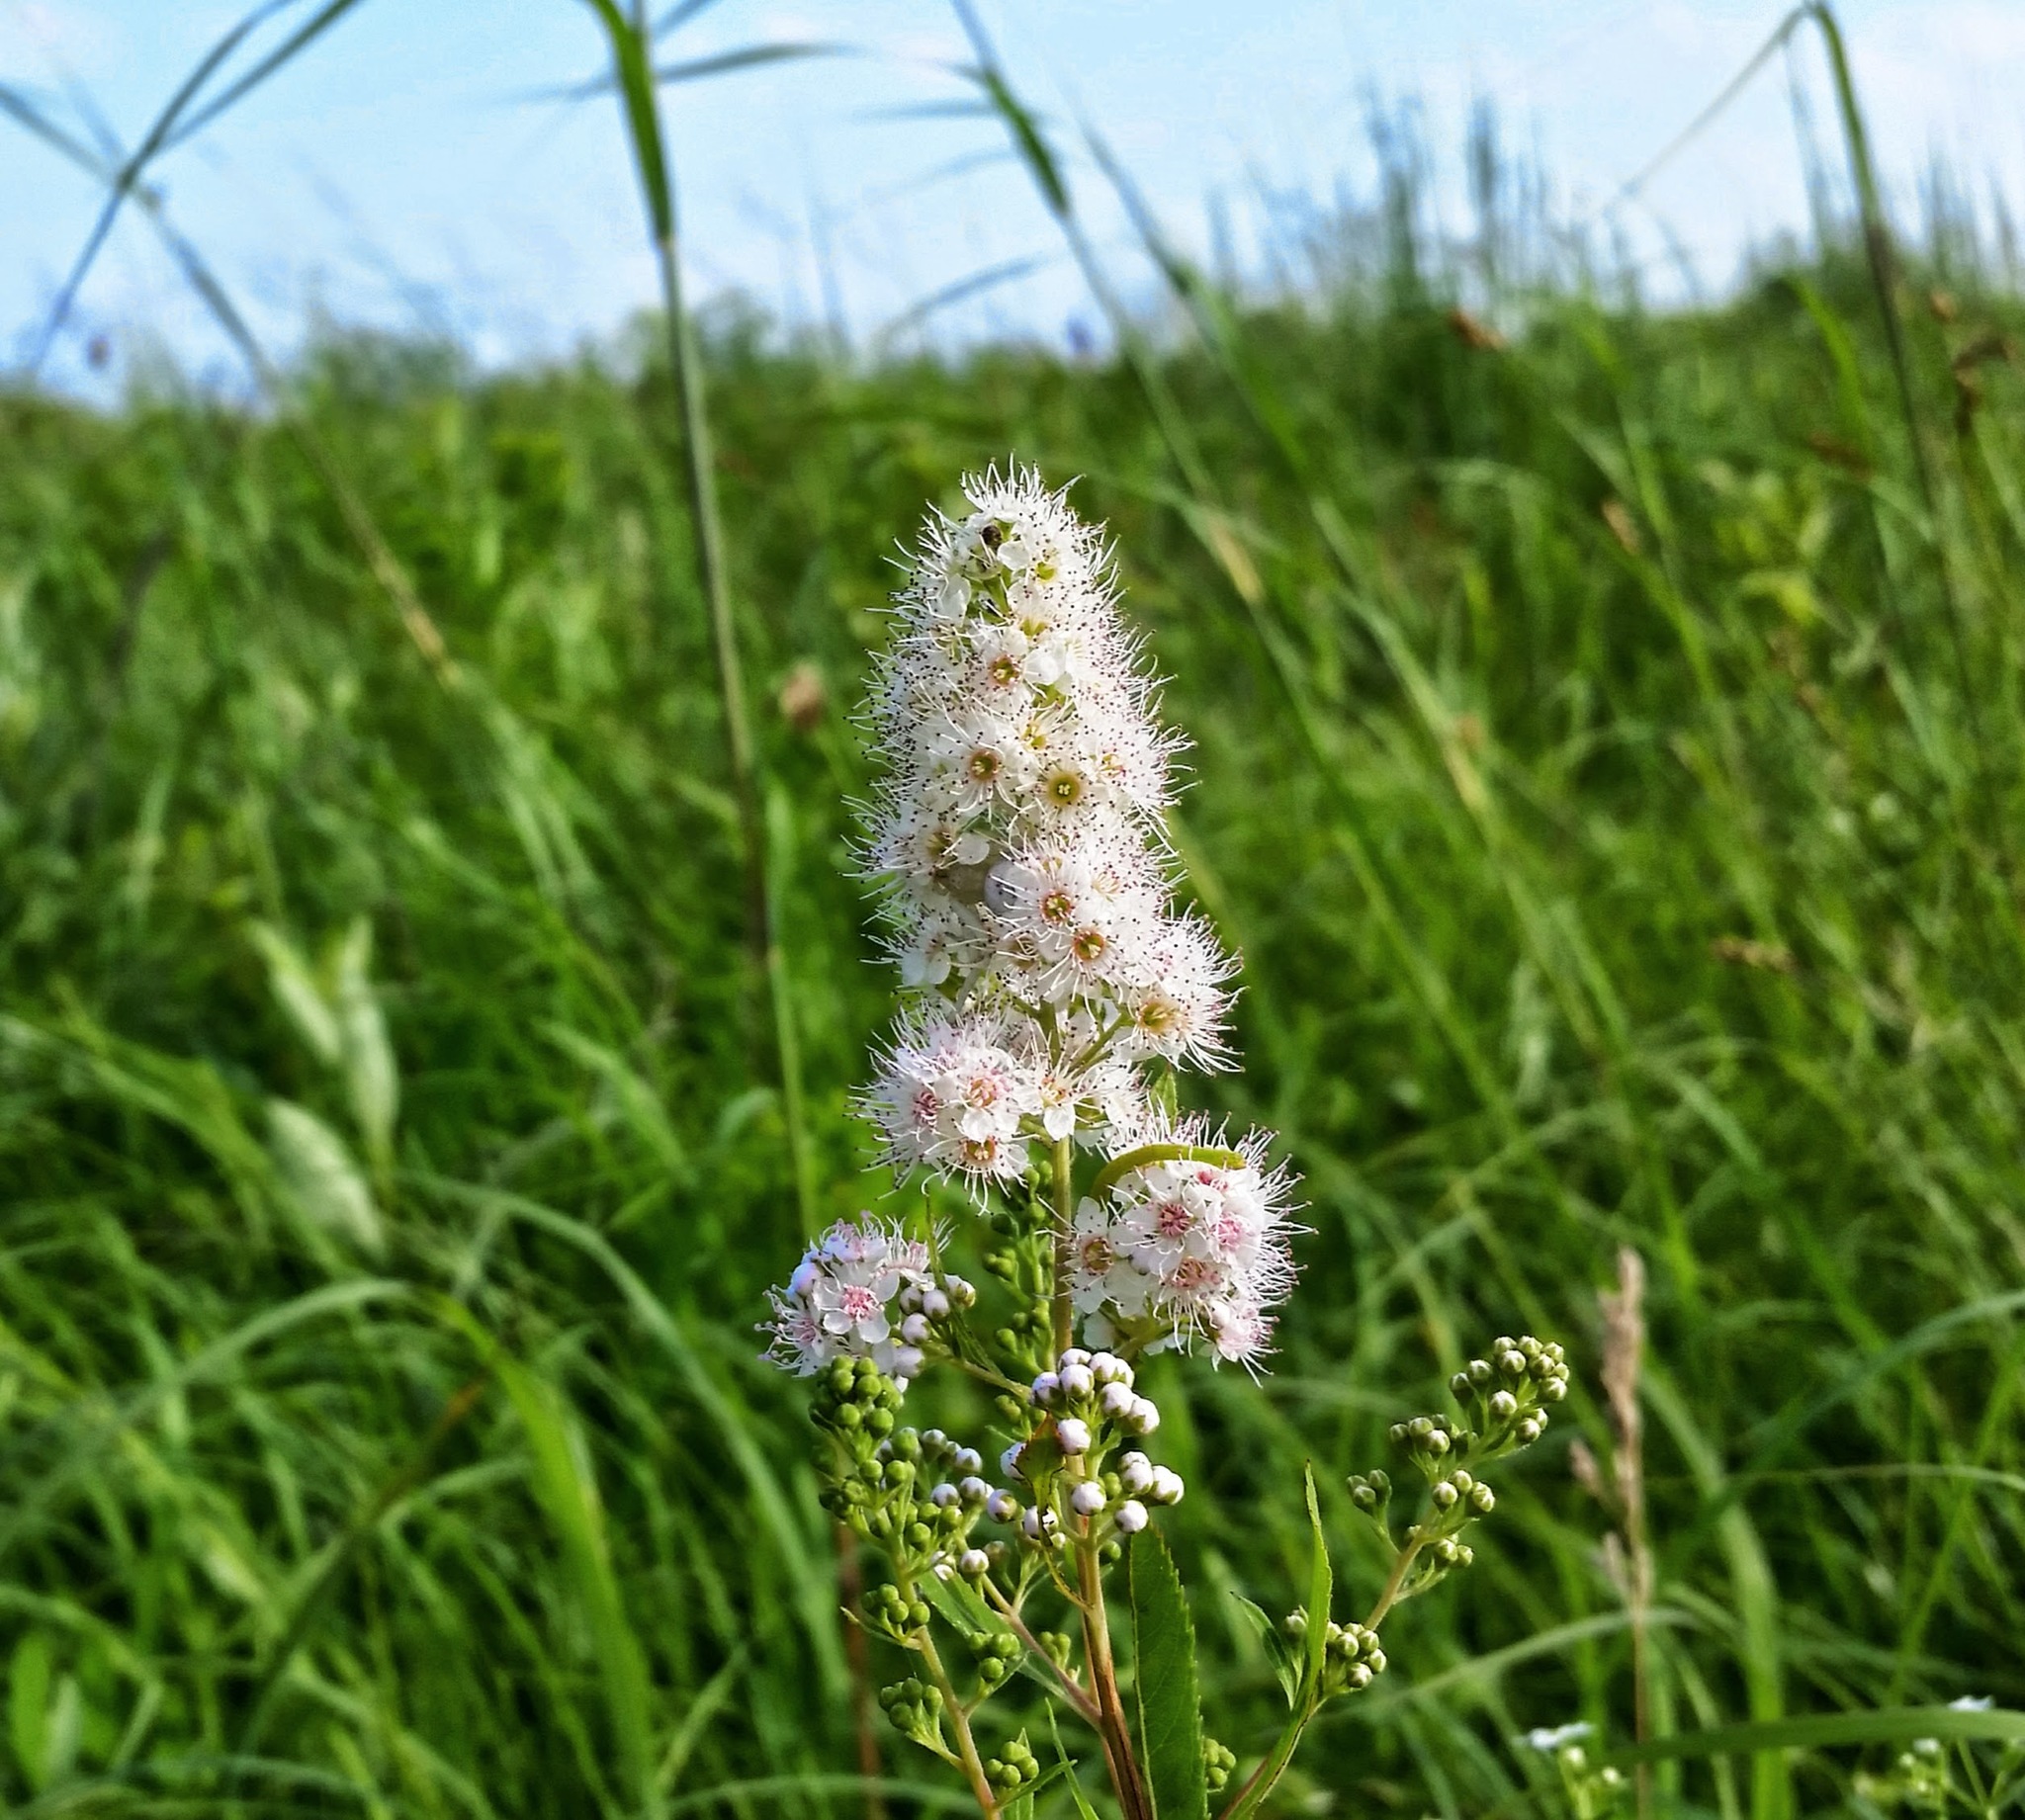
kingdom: Plantae
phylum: Tracheophyta
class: Magnoliopsida
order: Rosales
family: Rosaceae
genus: Spiraea
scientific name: Spiraea alba
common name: Pale bridewort
